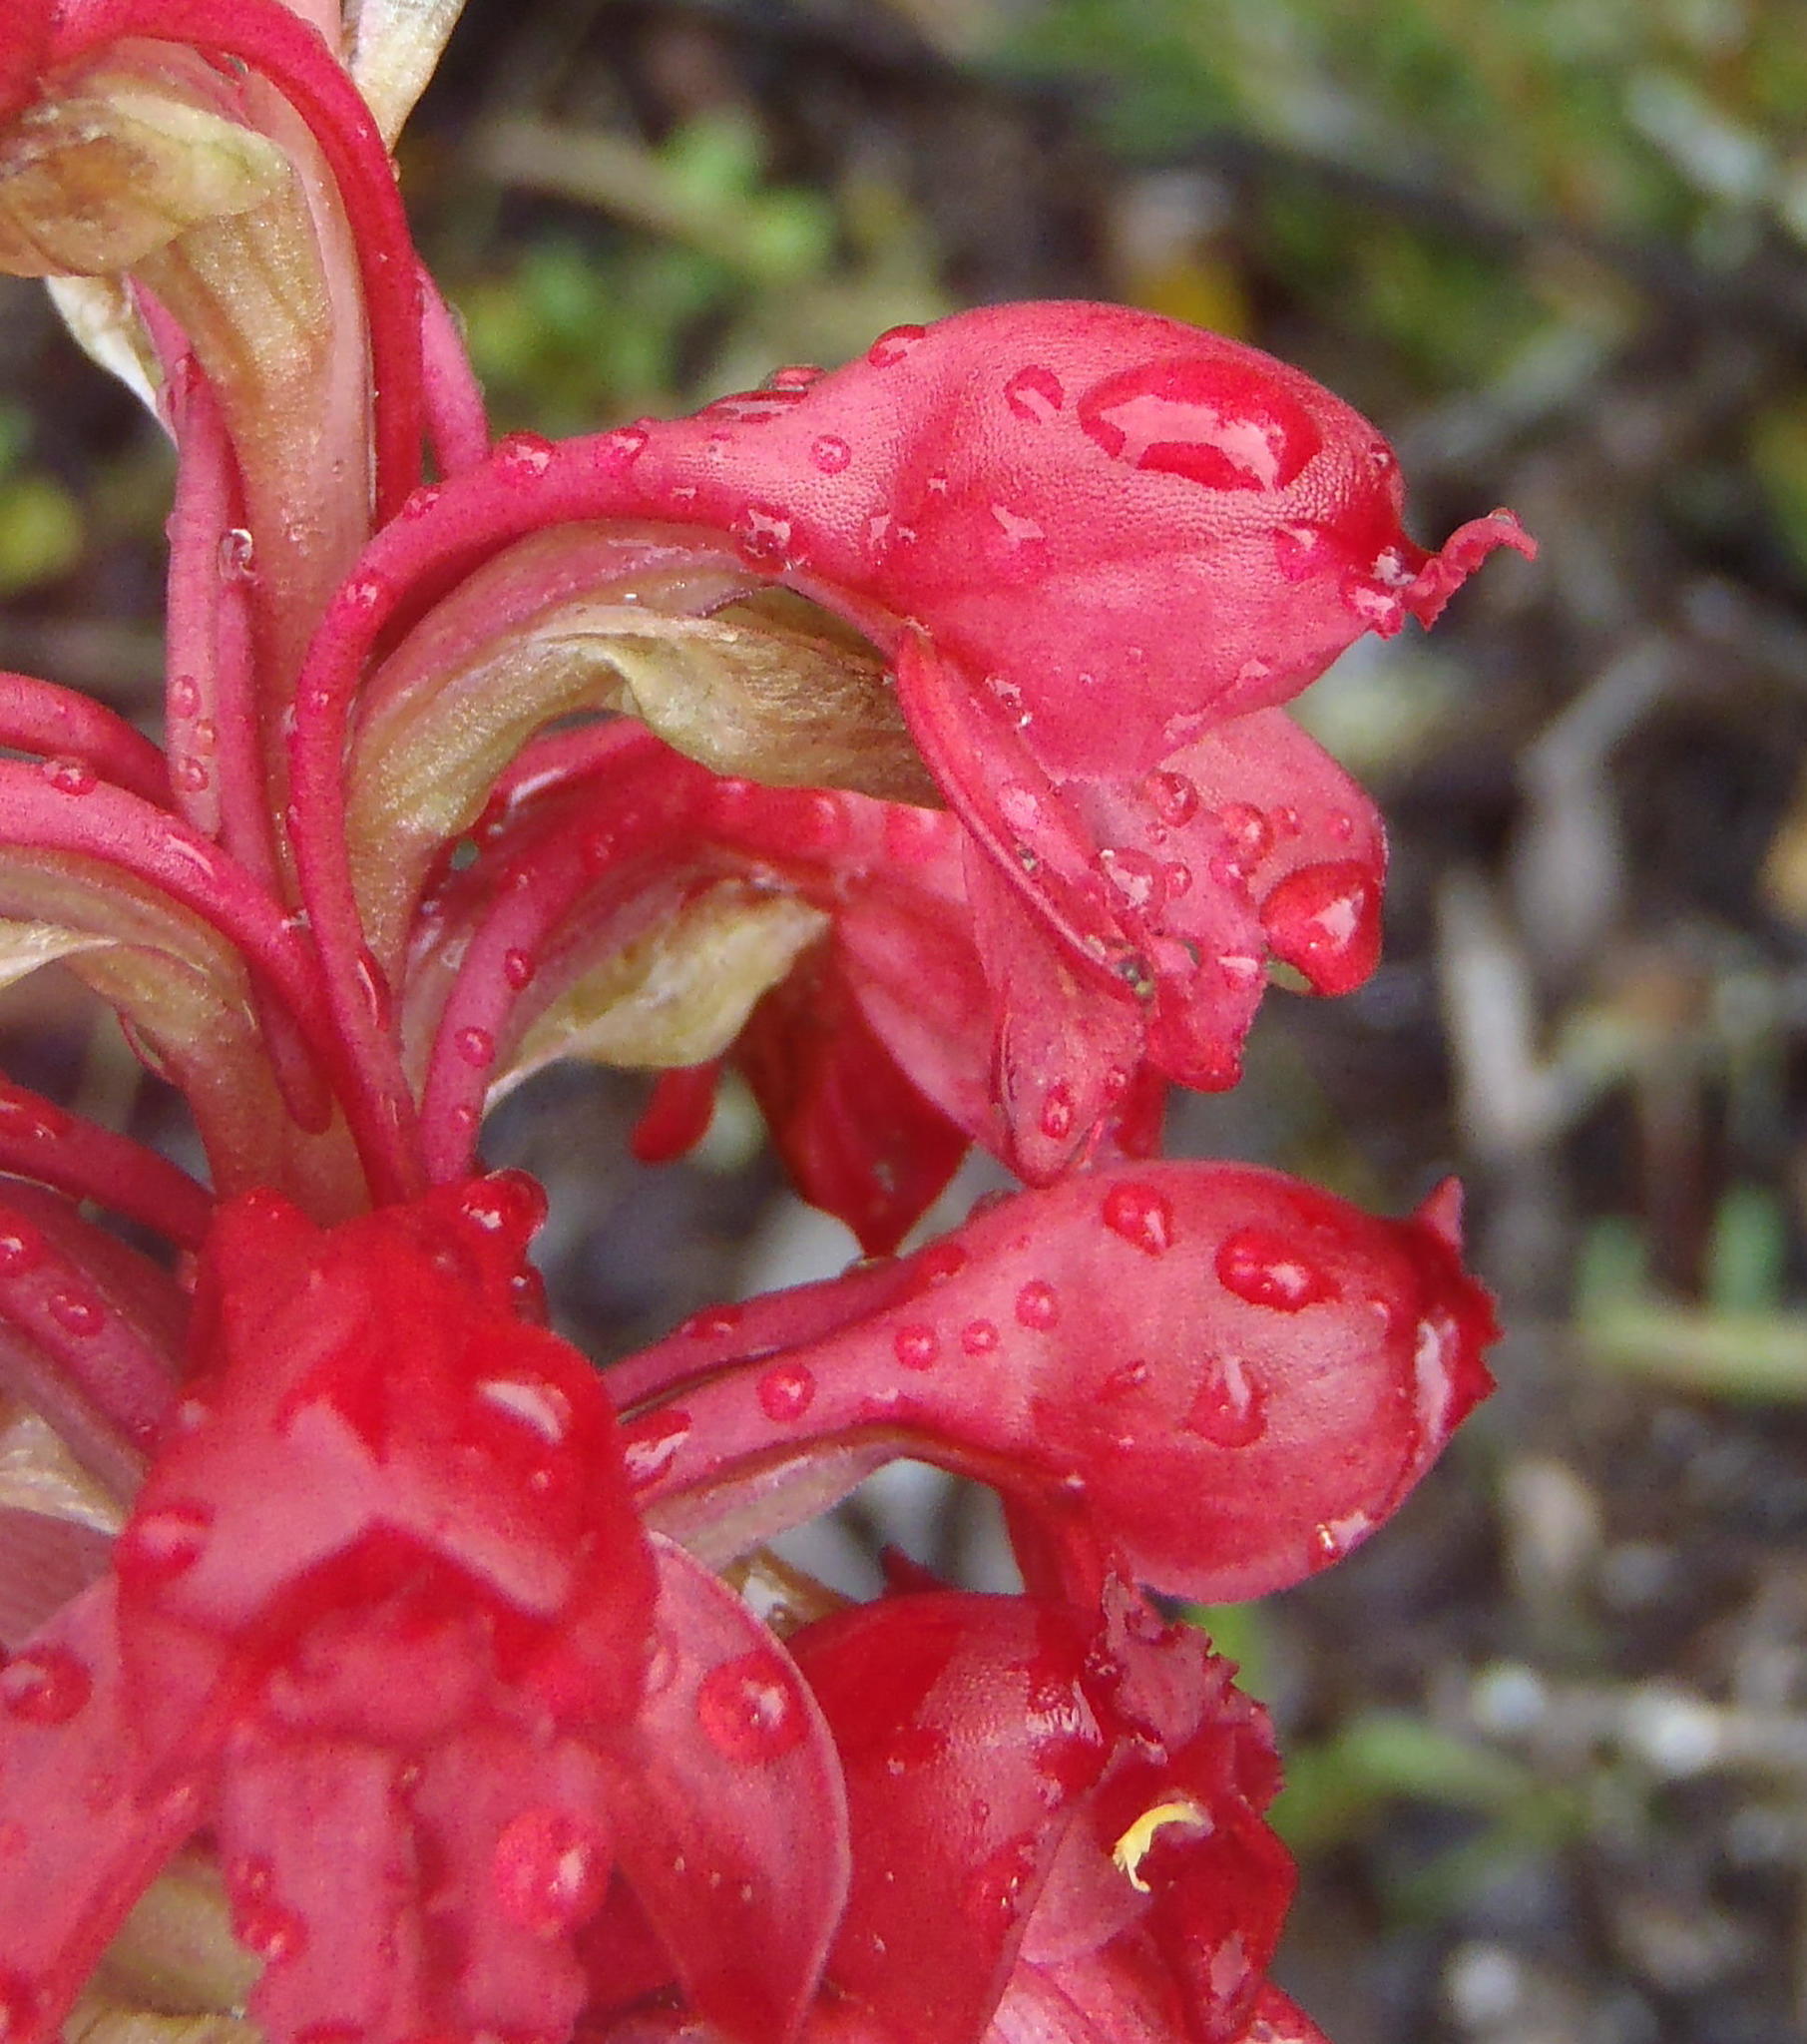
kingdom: Plantae
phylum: Tracheophyta
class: Liliopsida
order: Asparagales
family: Orchidaceae
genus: Satyrium
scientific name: Satyrium princeps
